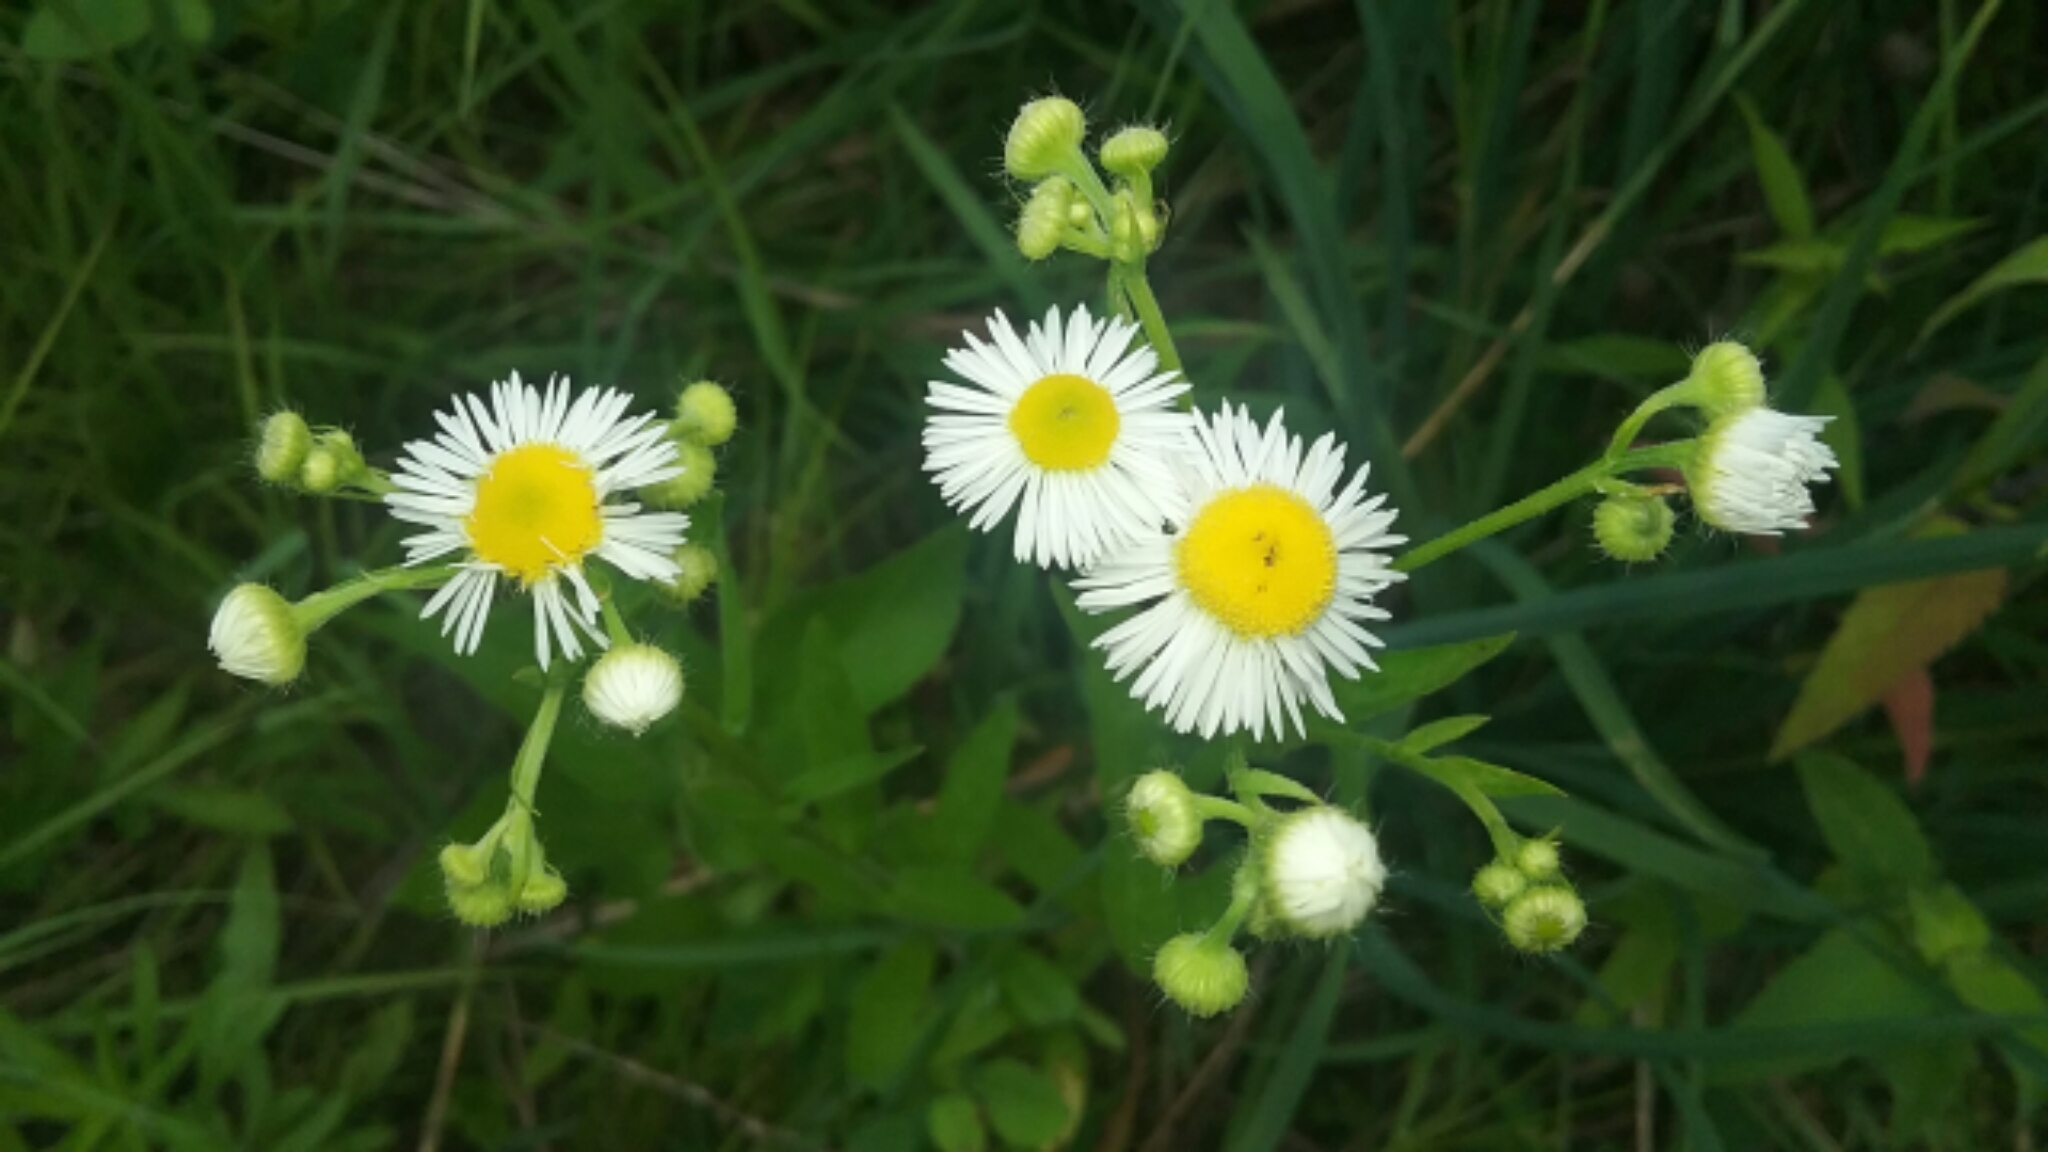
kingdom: Plantae
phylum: Tracheophyta
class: Magnoliopsida
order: Asterales
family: Asteraceae
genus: Erigeron
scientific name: Erigeron annuus
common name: Tall fleabane
